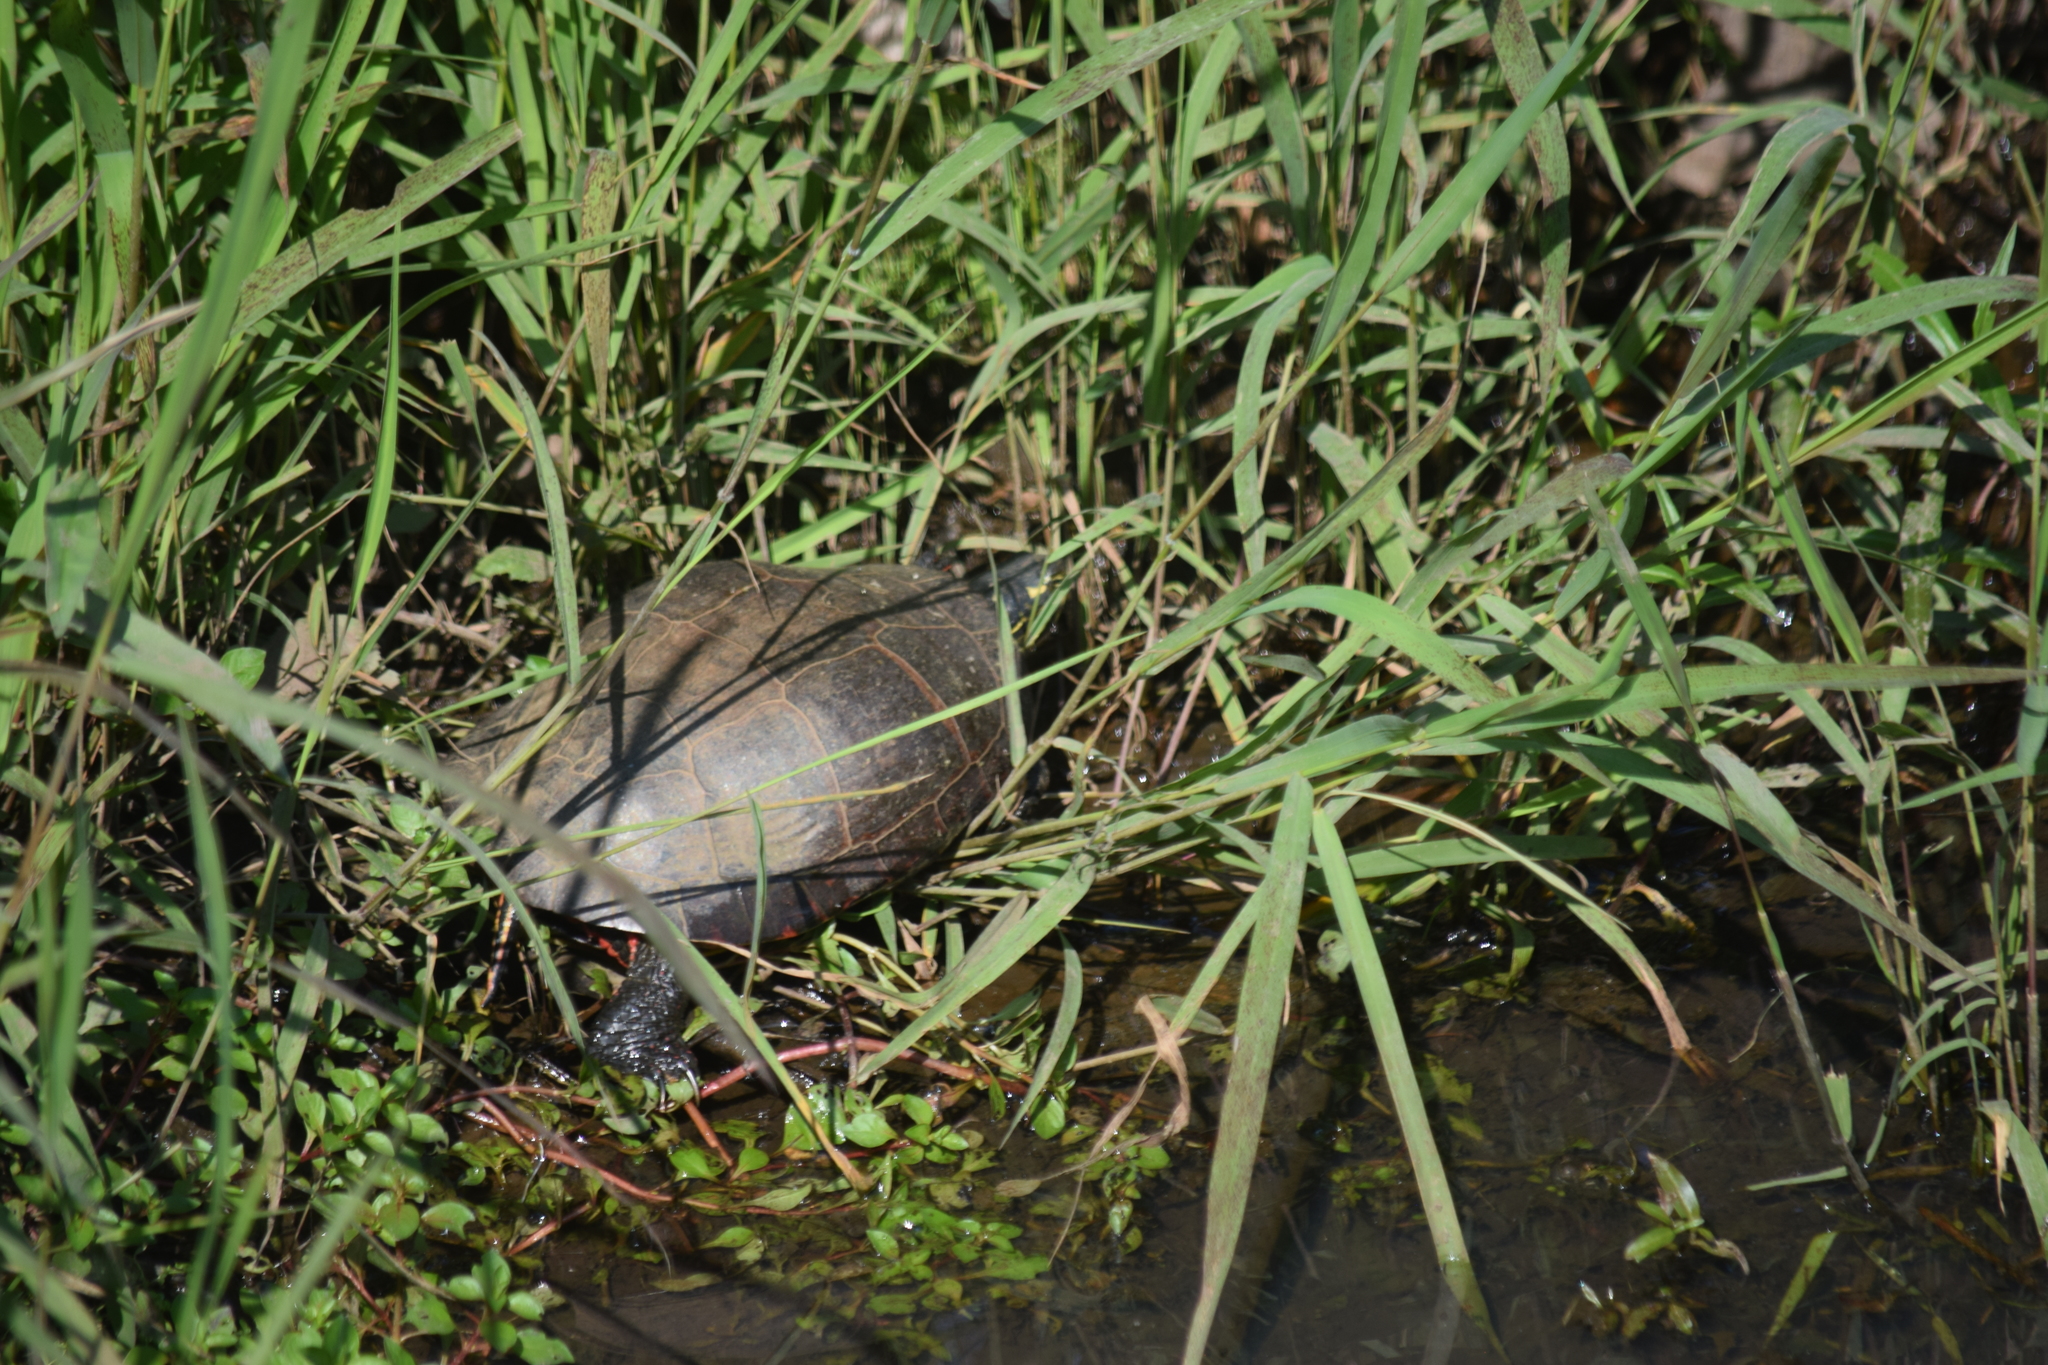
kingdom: Animalia
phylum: Chordata
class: Testudines
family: Emydidae
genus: Chrysemys
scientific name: Chrysemys picta
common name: Painted turtle
